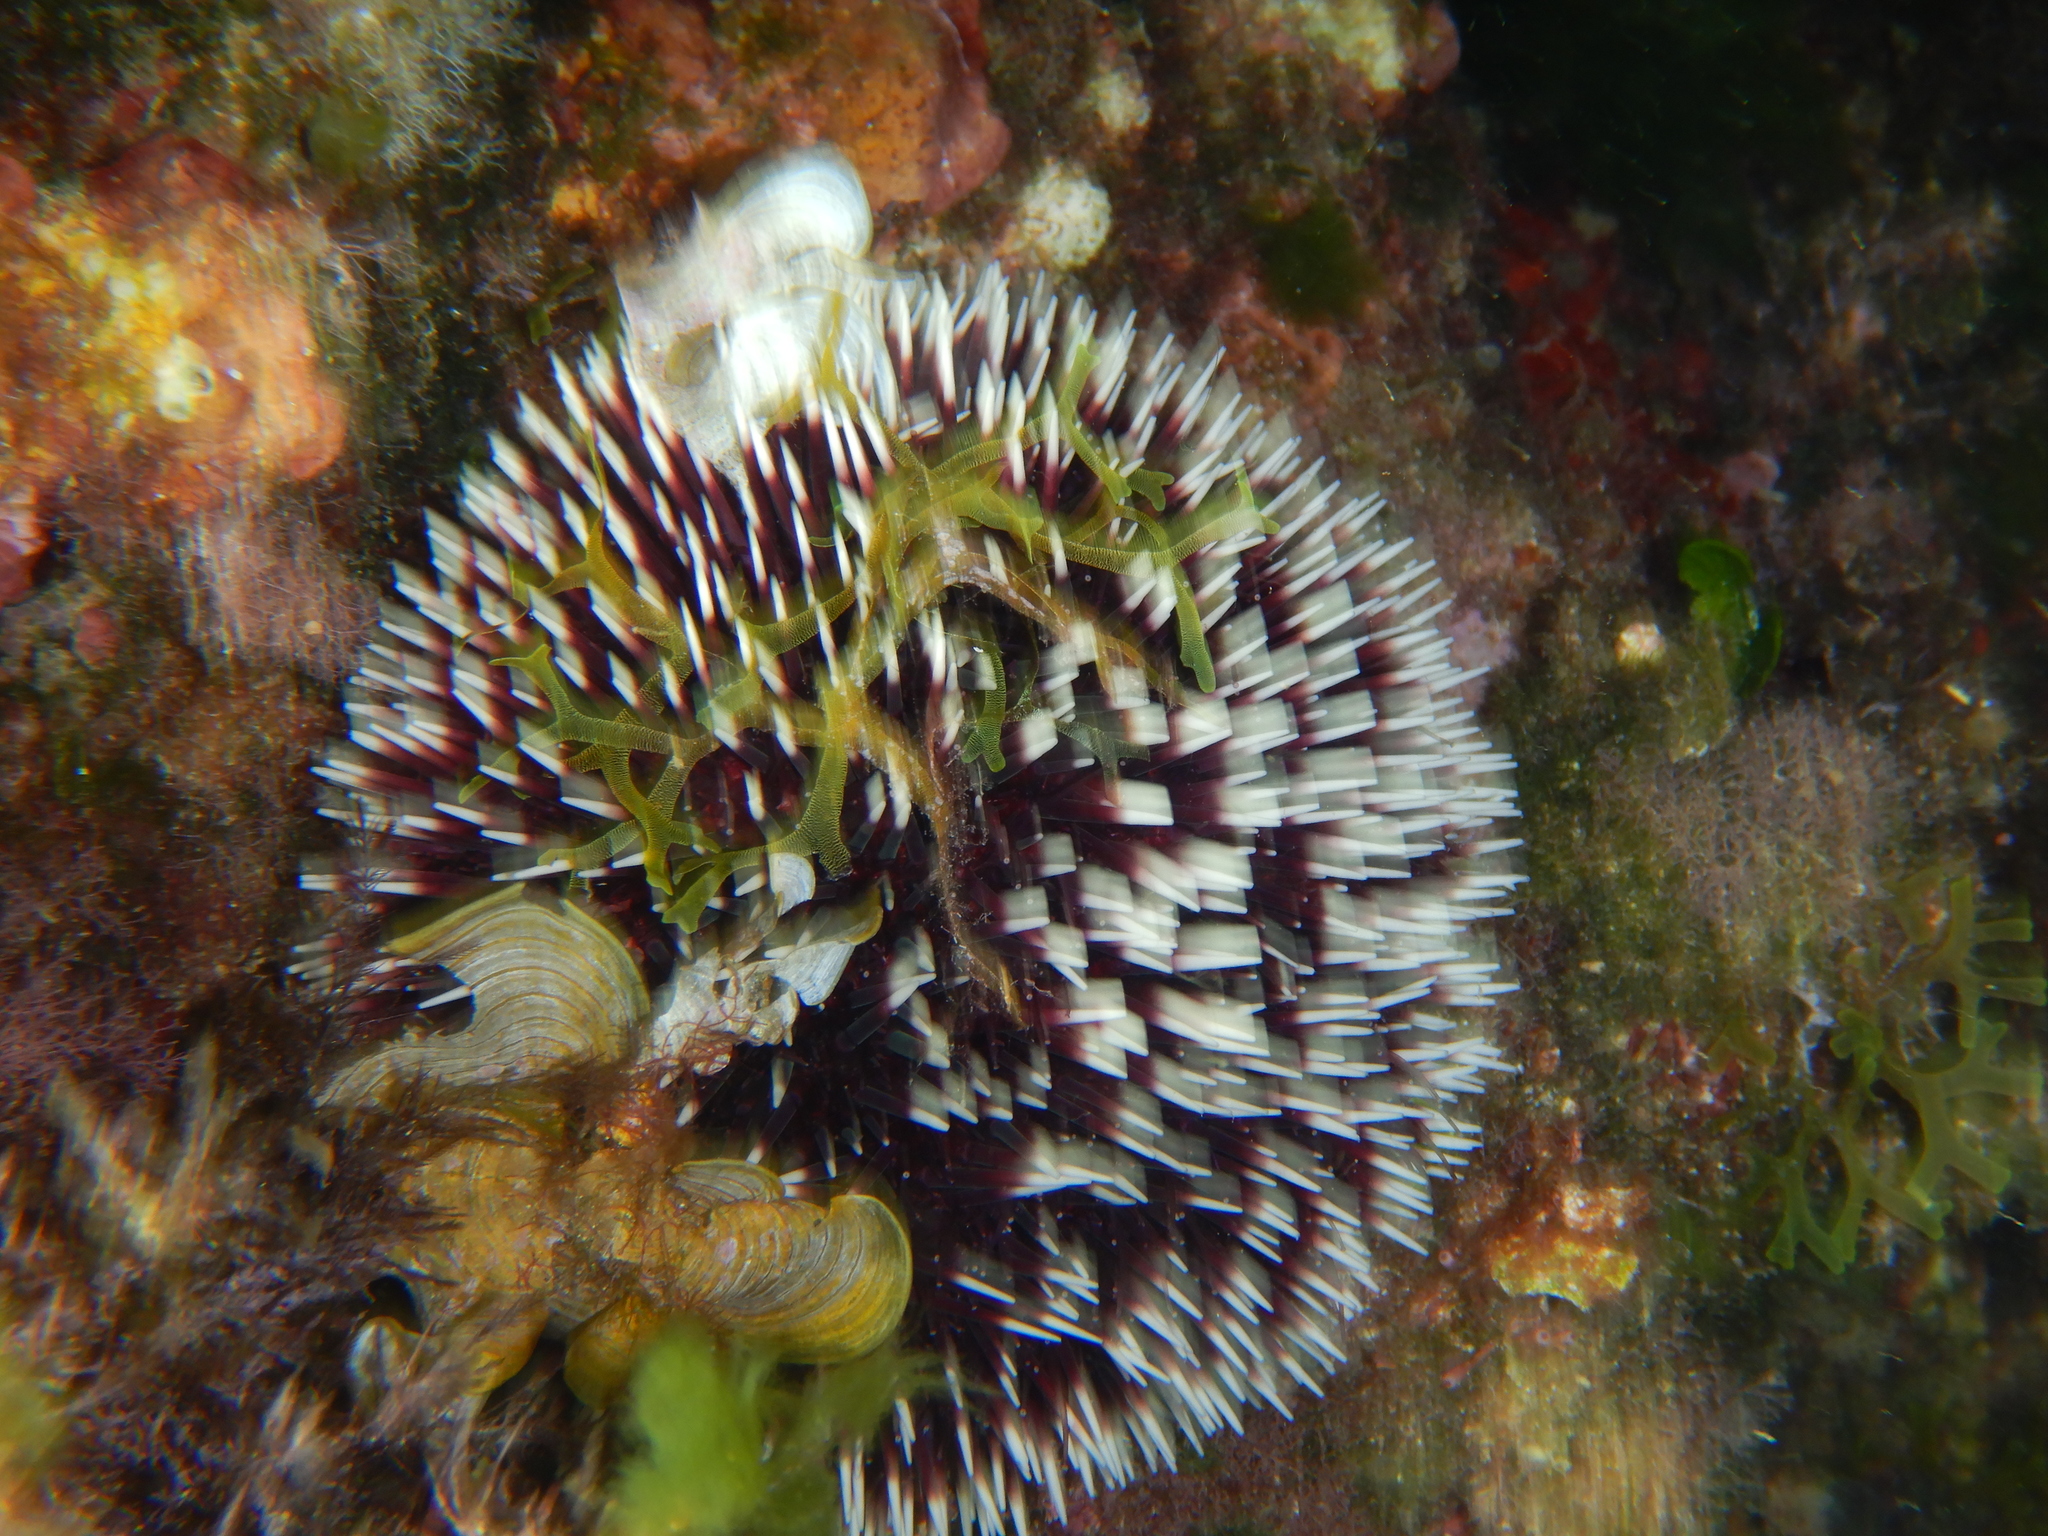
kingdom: Animalia
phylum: Echinodermata
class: Echinoidea
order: Camarodonta
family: Toxopneustidae
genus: Sphaerechinus
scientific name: Sphaerechinus granularis
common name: Violet sea urchin
